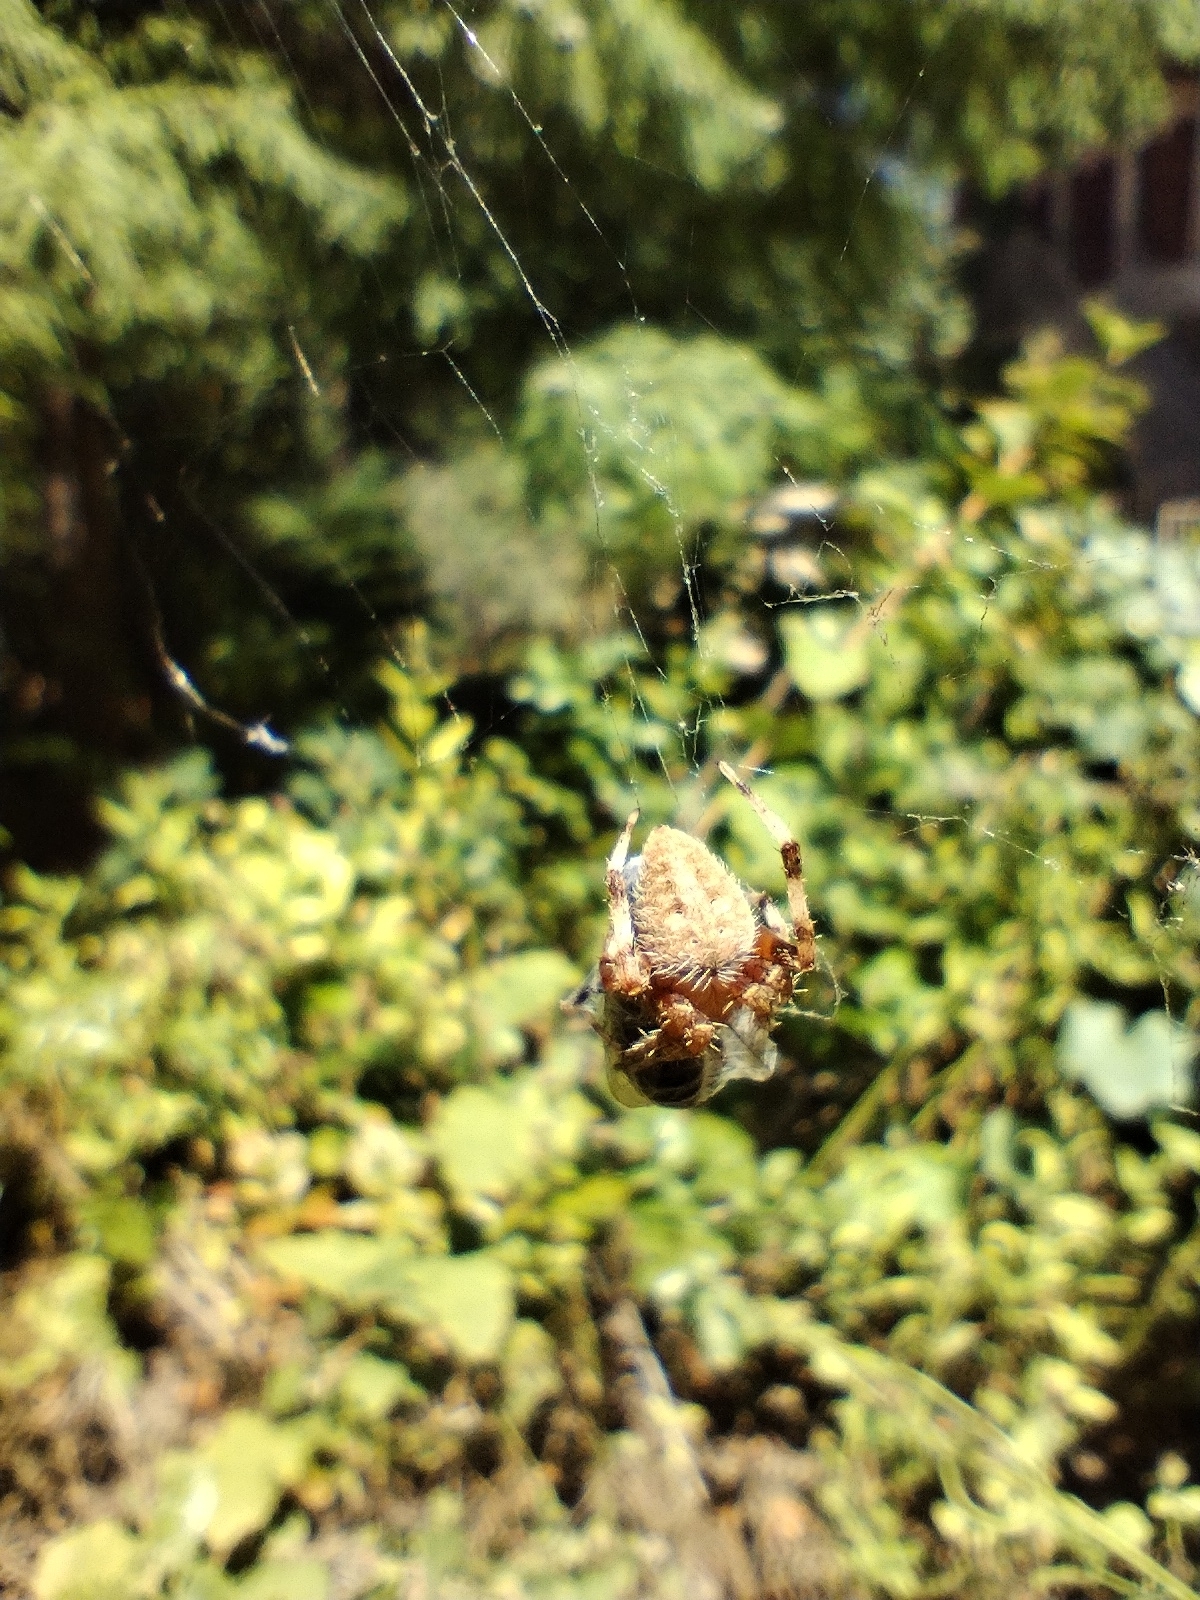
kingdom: Animalia
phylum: Arthropoda
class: Arachnida
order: Araneae
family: Araneidae
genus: Neoscona
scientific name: Neoscona crucifera
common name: Spotted orbweaver
